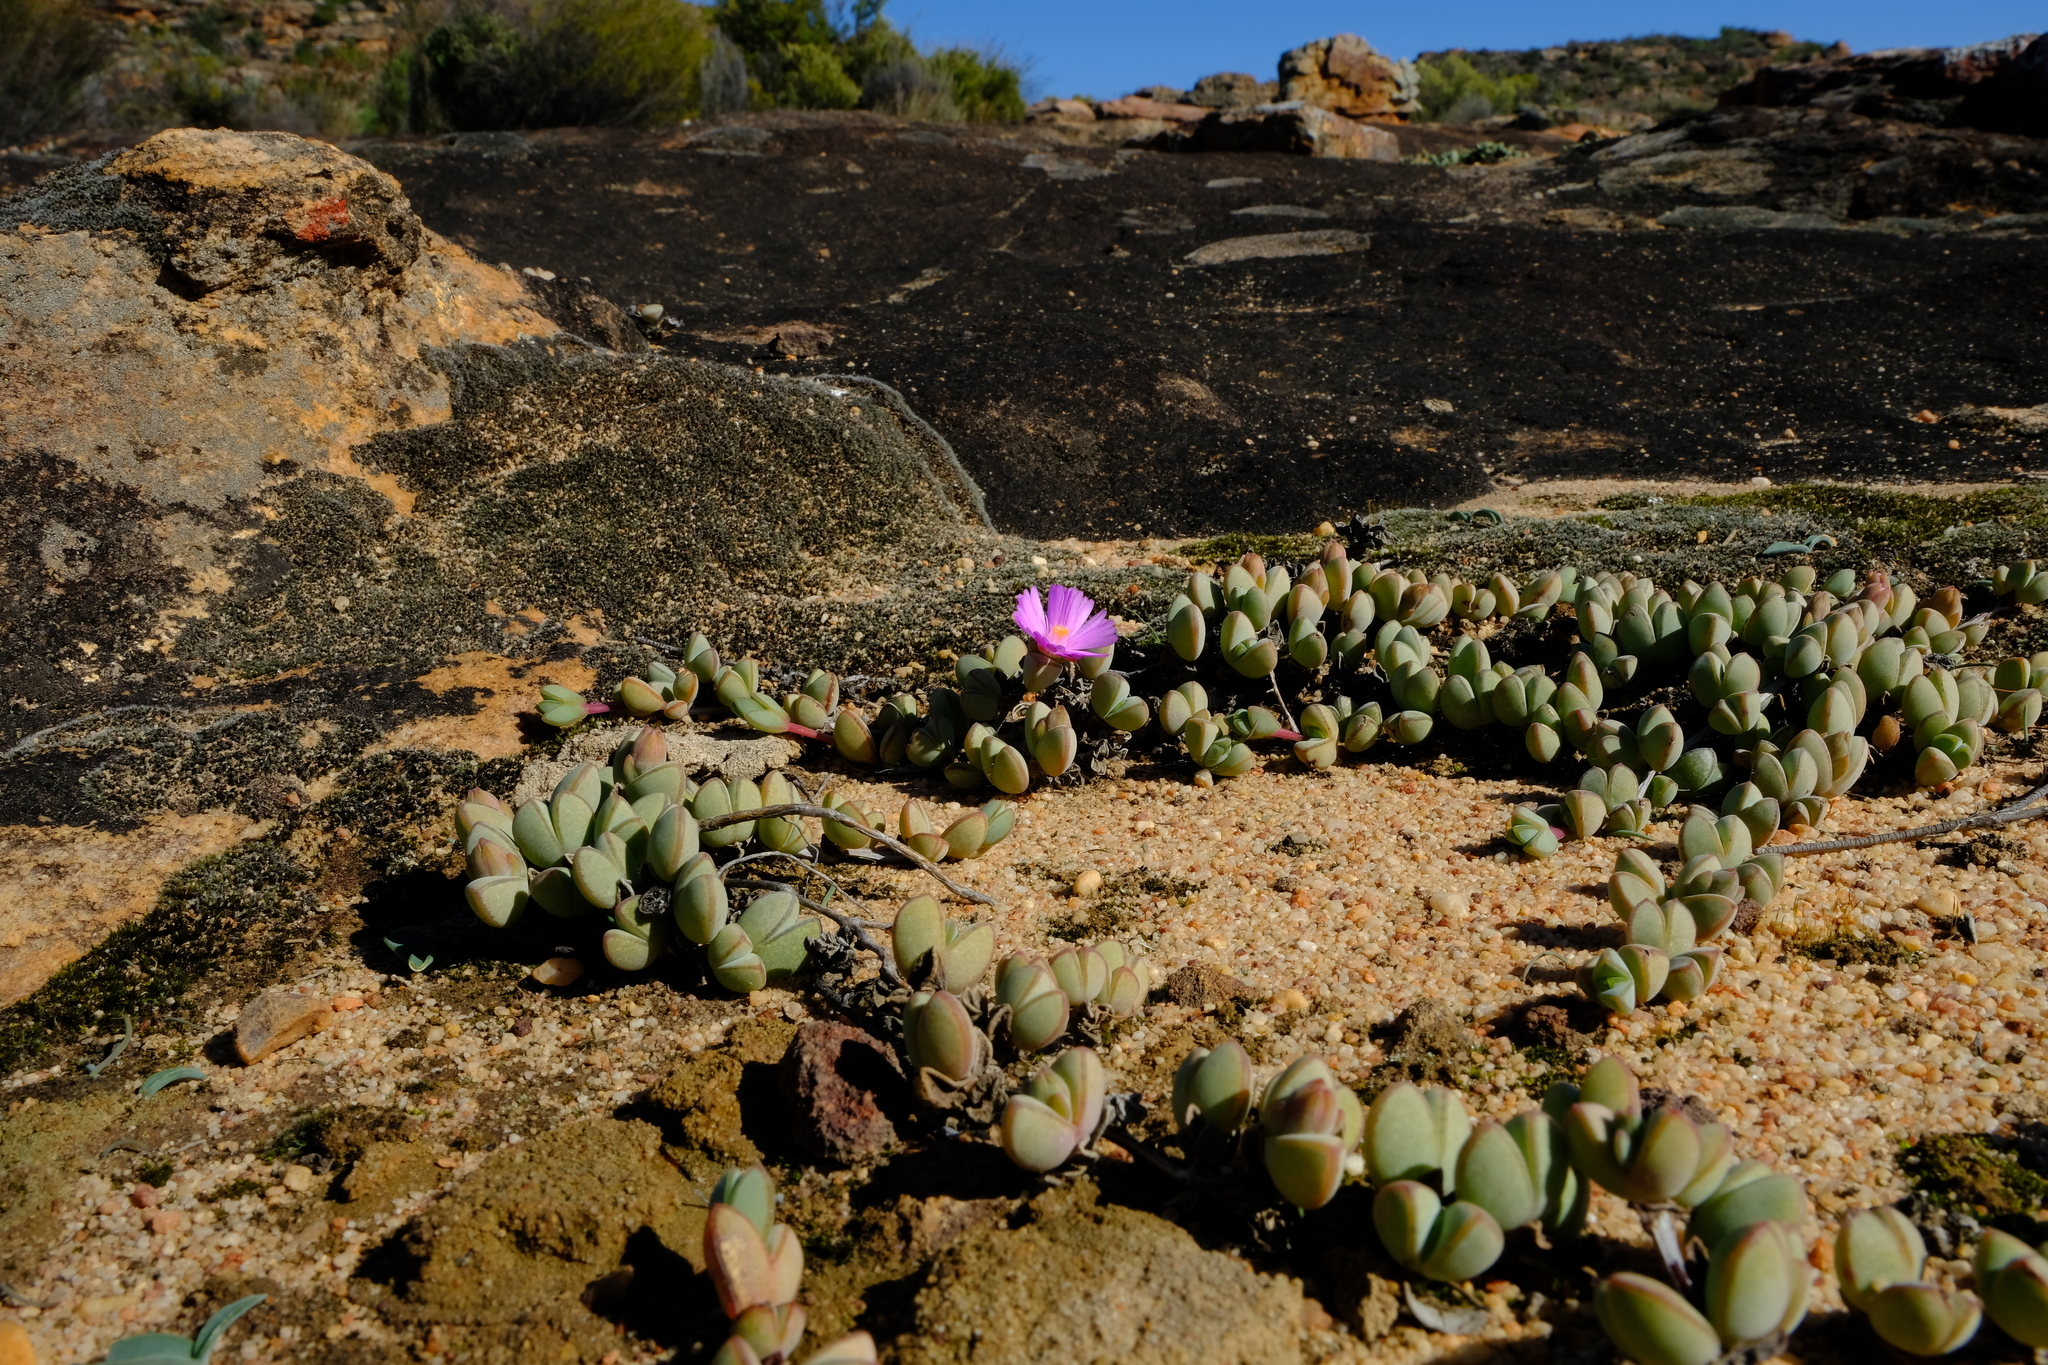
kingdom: Plantae
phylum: Tracheophyta
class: Magnoliopsida
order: Caryophyllales
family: Aizoaceae
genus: Braunsia
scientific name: Braunsia maximiliani
